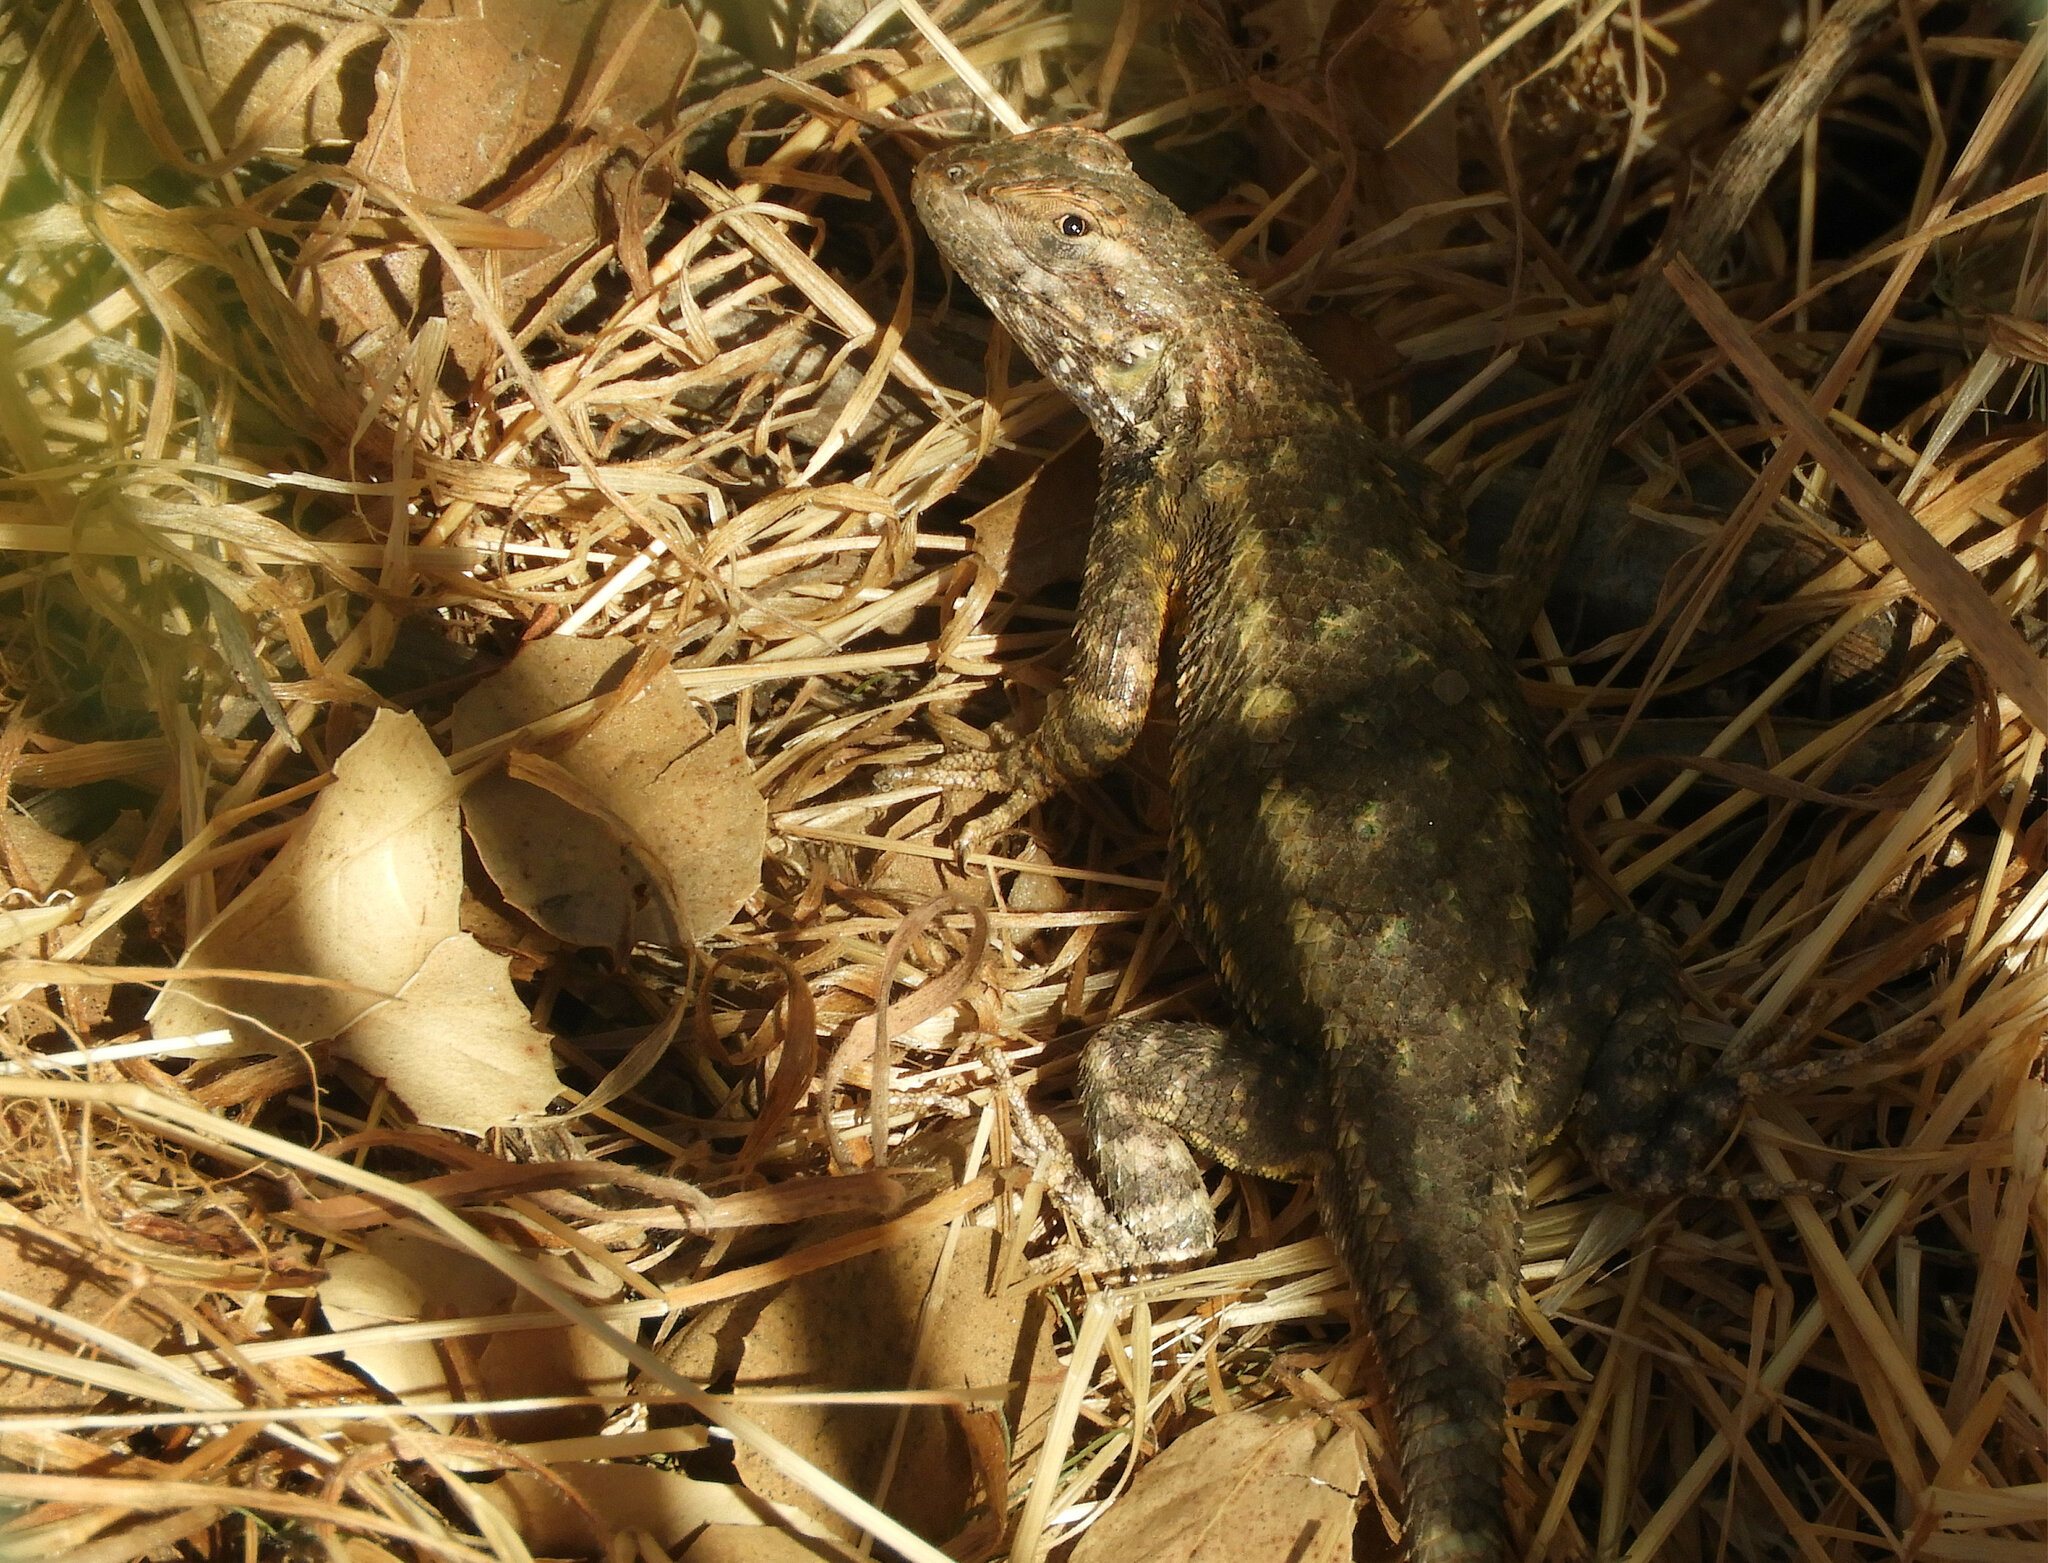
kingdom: Animalia
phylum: Chordata
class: Squamata
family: Phrynosomatidae
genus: Sceloporus
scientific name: Sceloporus occidentalis
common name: Western fence lizard
